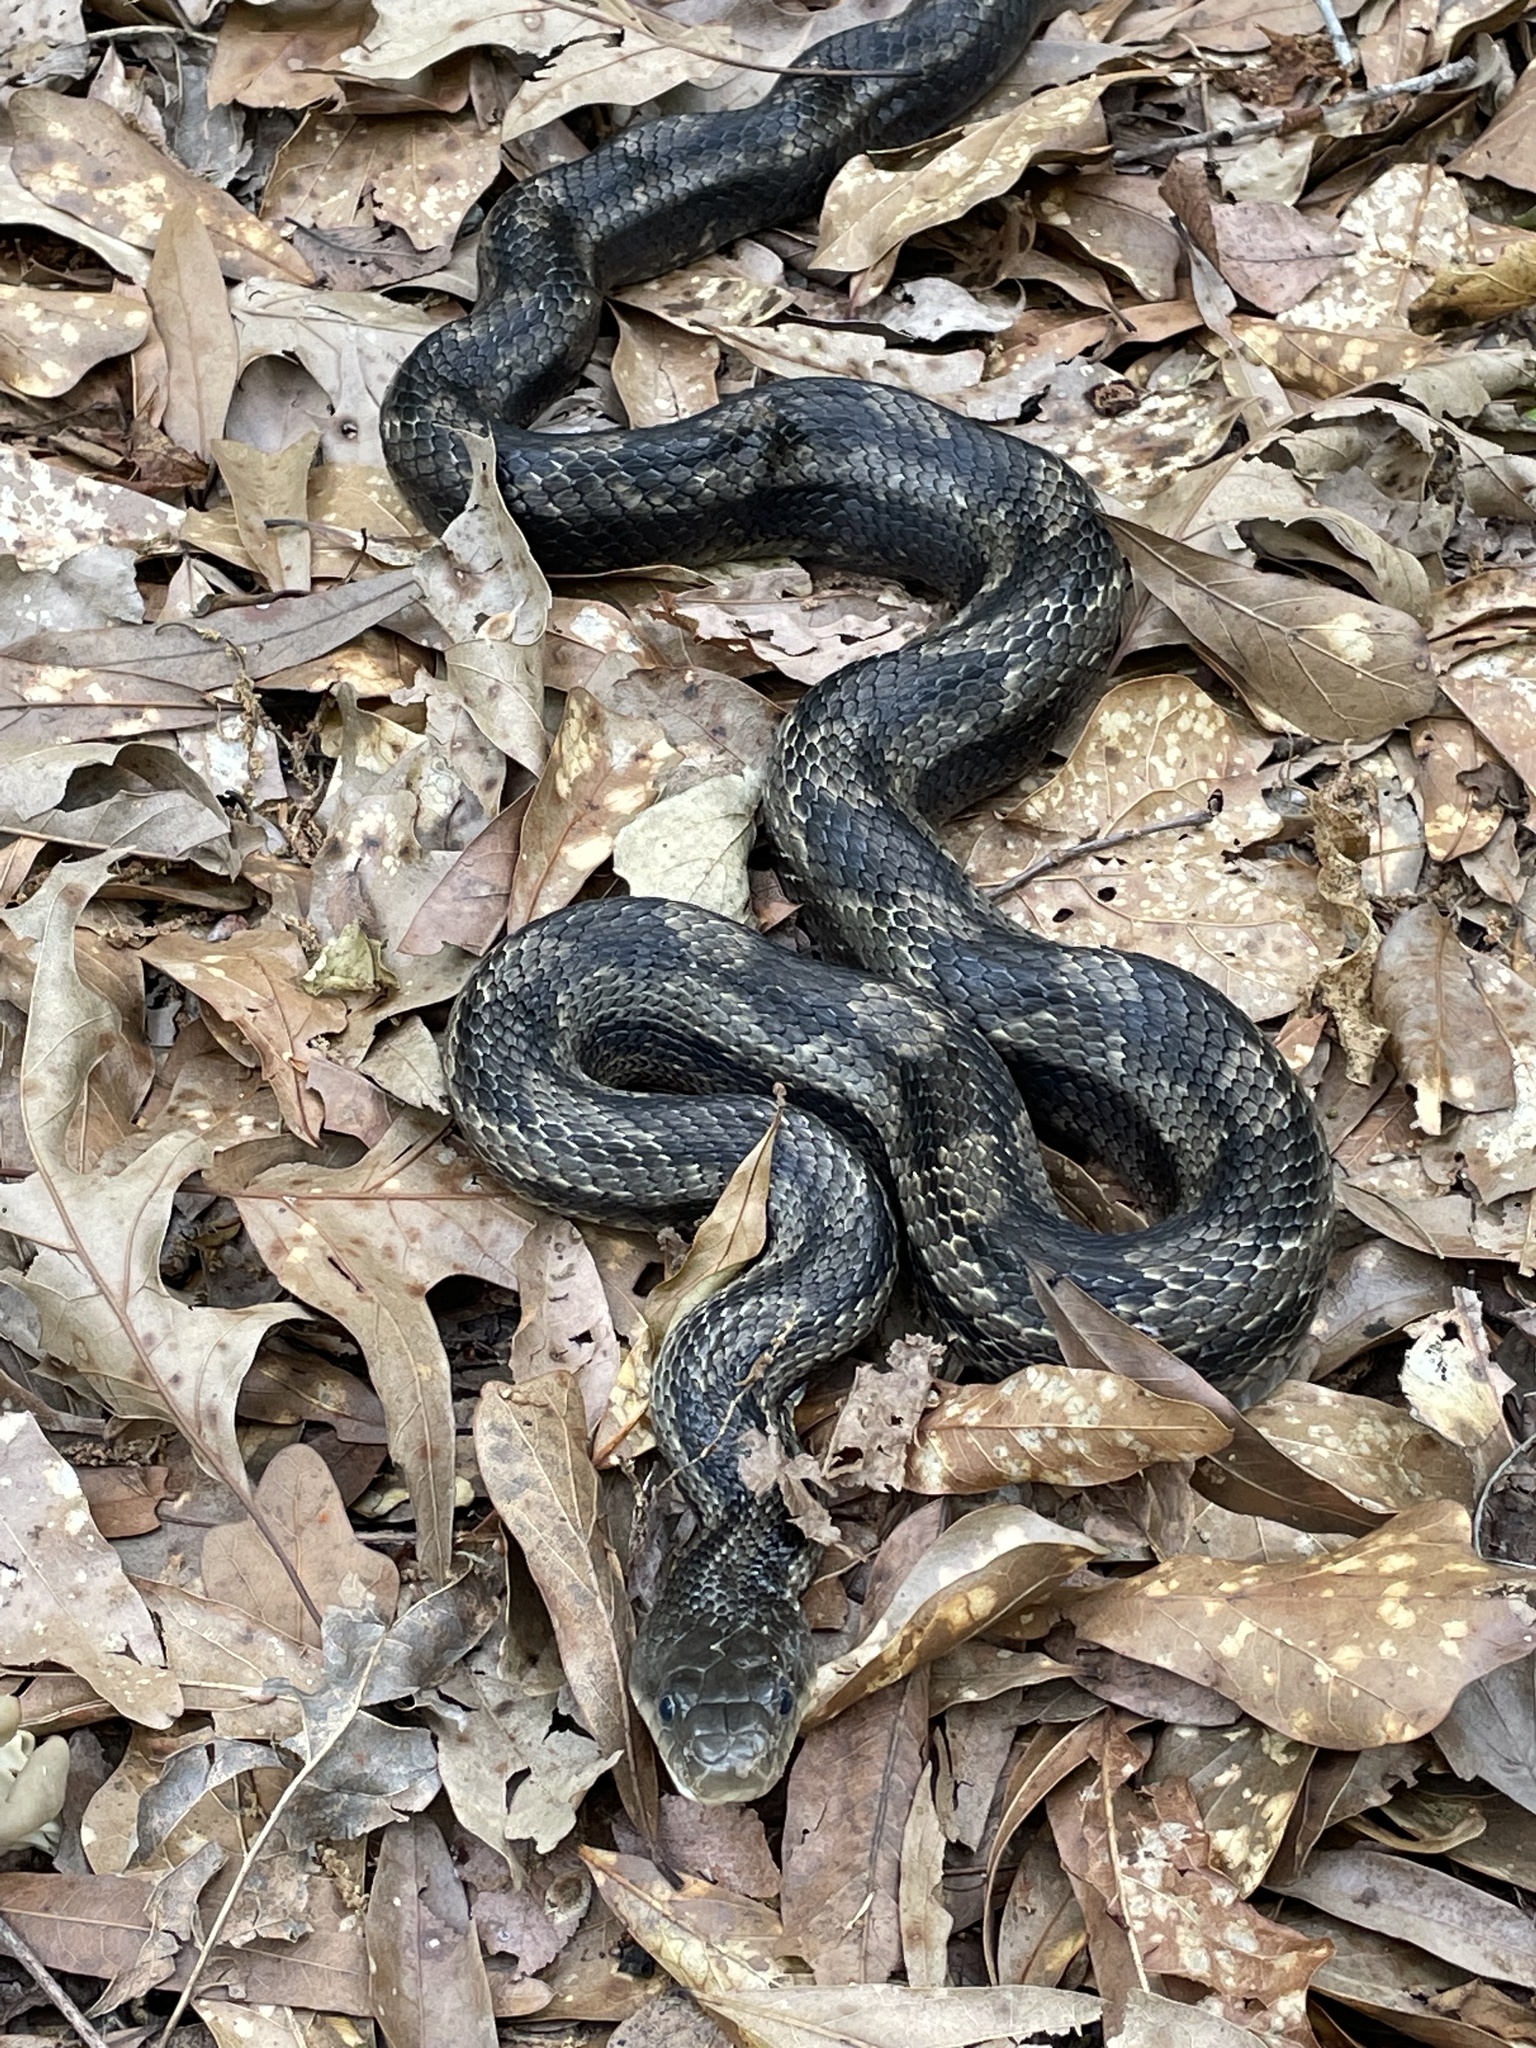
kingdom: Animalia
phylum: Chordata
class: Squamata
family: Colubridae
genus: Pantherophis
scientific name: Pantherophis obsoletus
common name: Black rat snake
